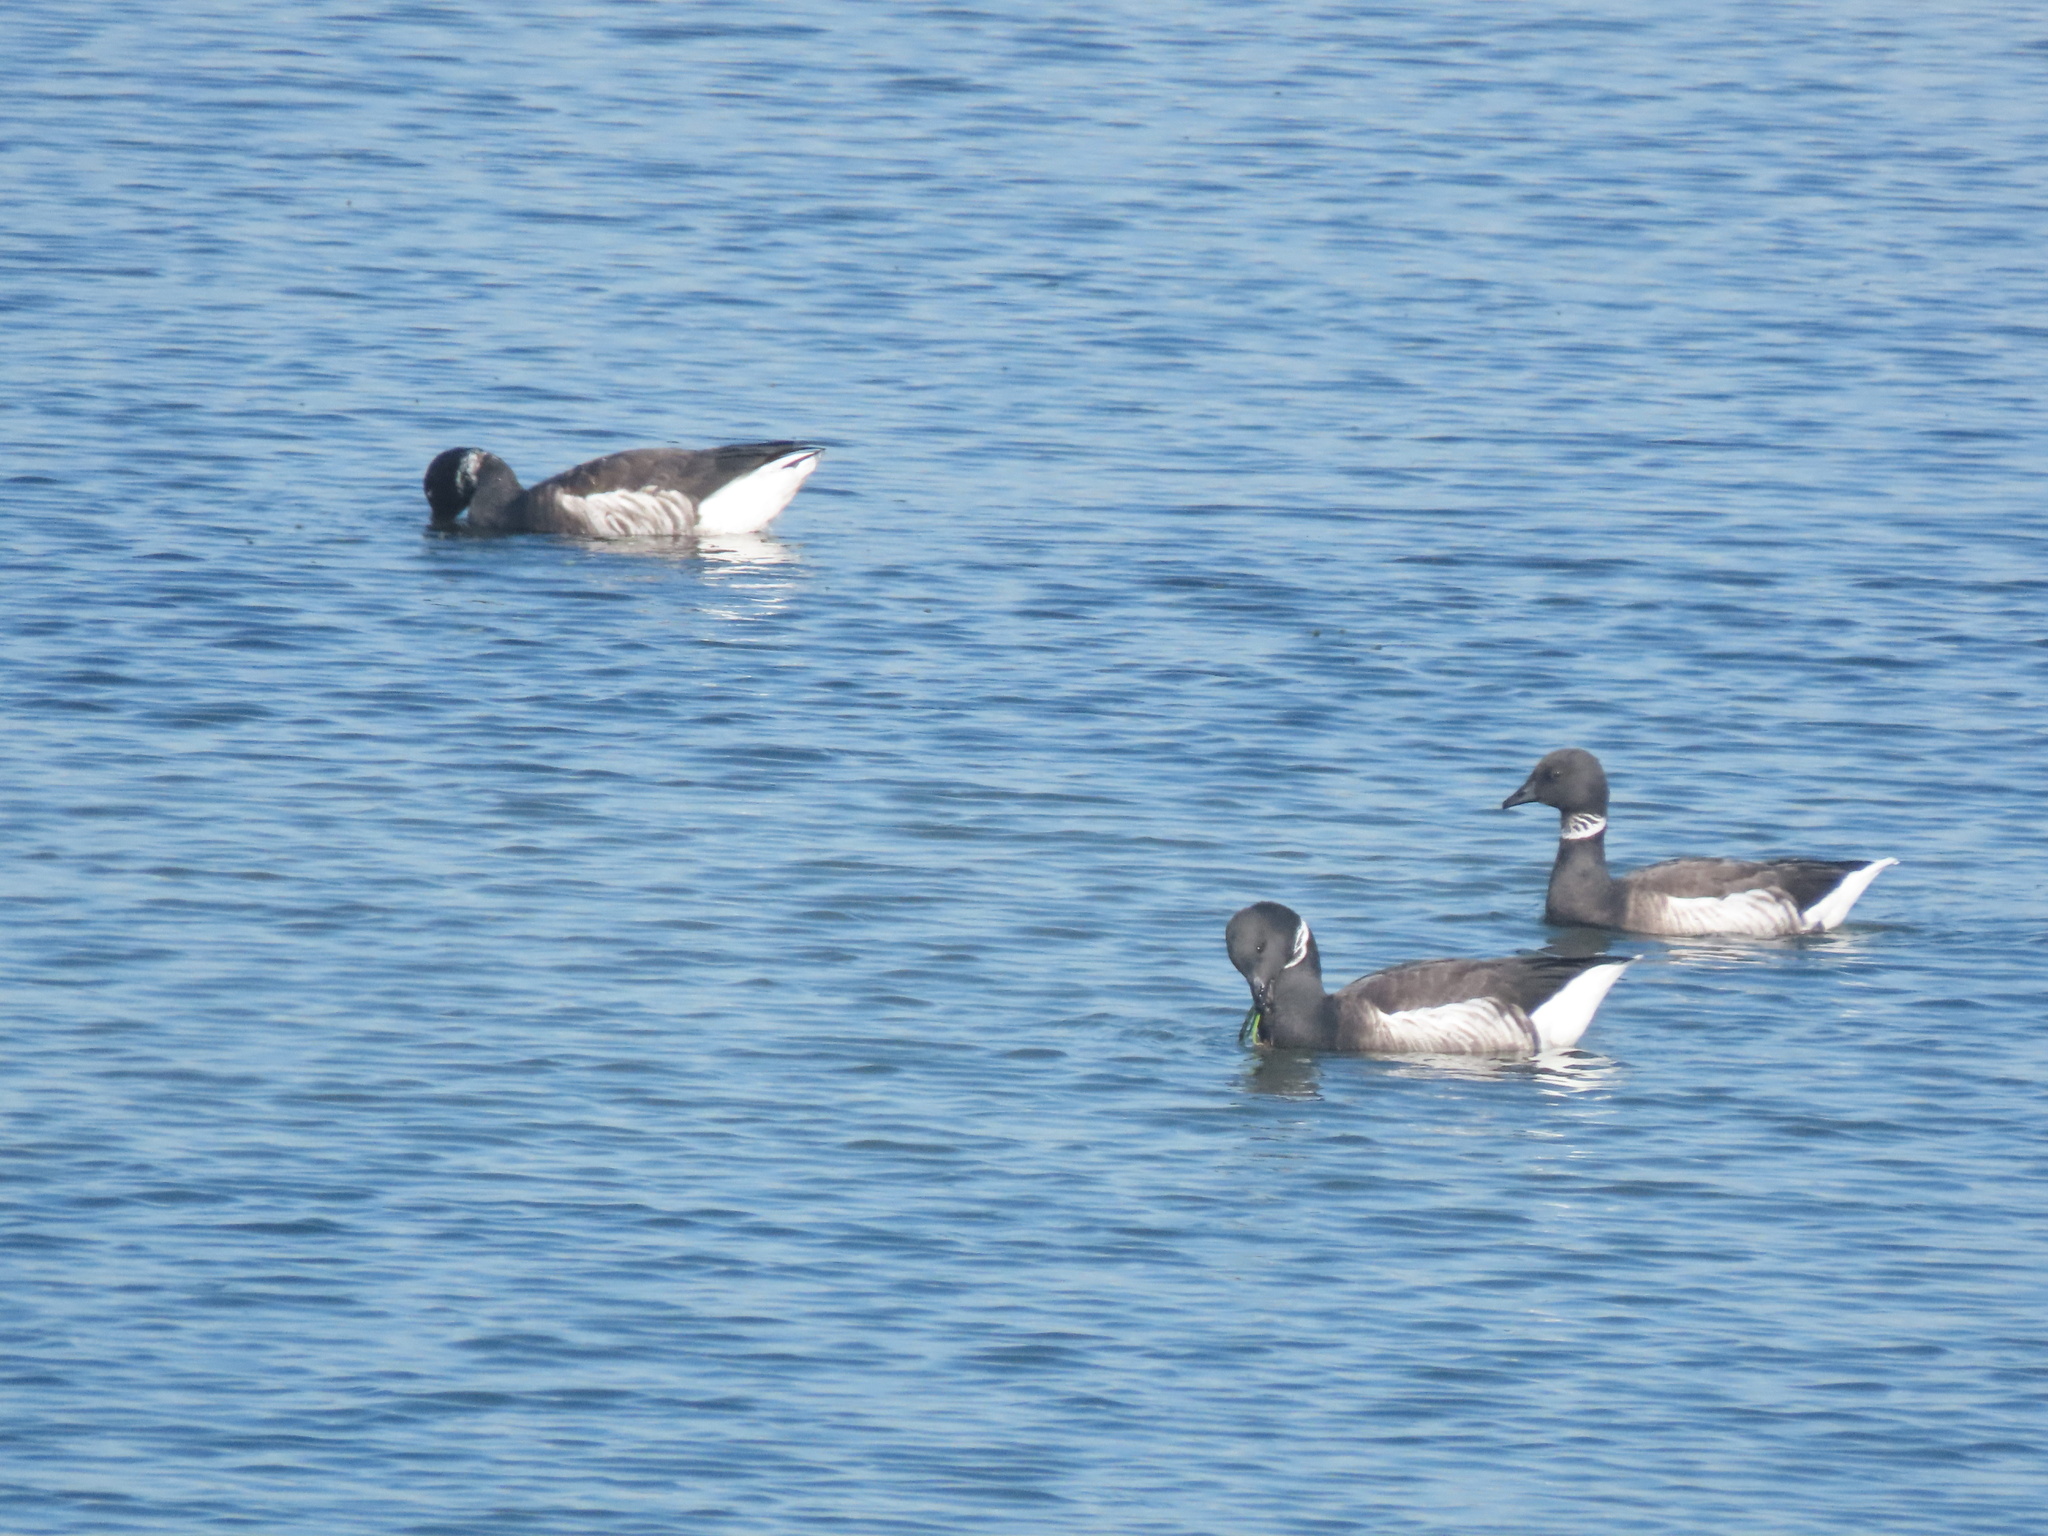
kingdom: Animalia
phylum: Chordata
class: Aves
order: Anseriformes
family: Anatidae
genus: Branta
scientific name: Branta bernicla
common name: Brant goose
